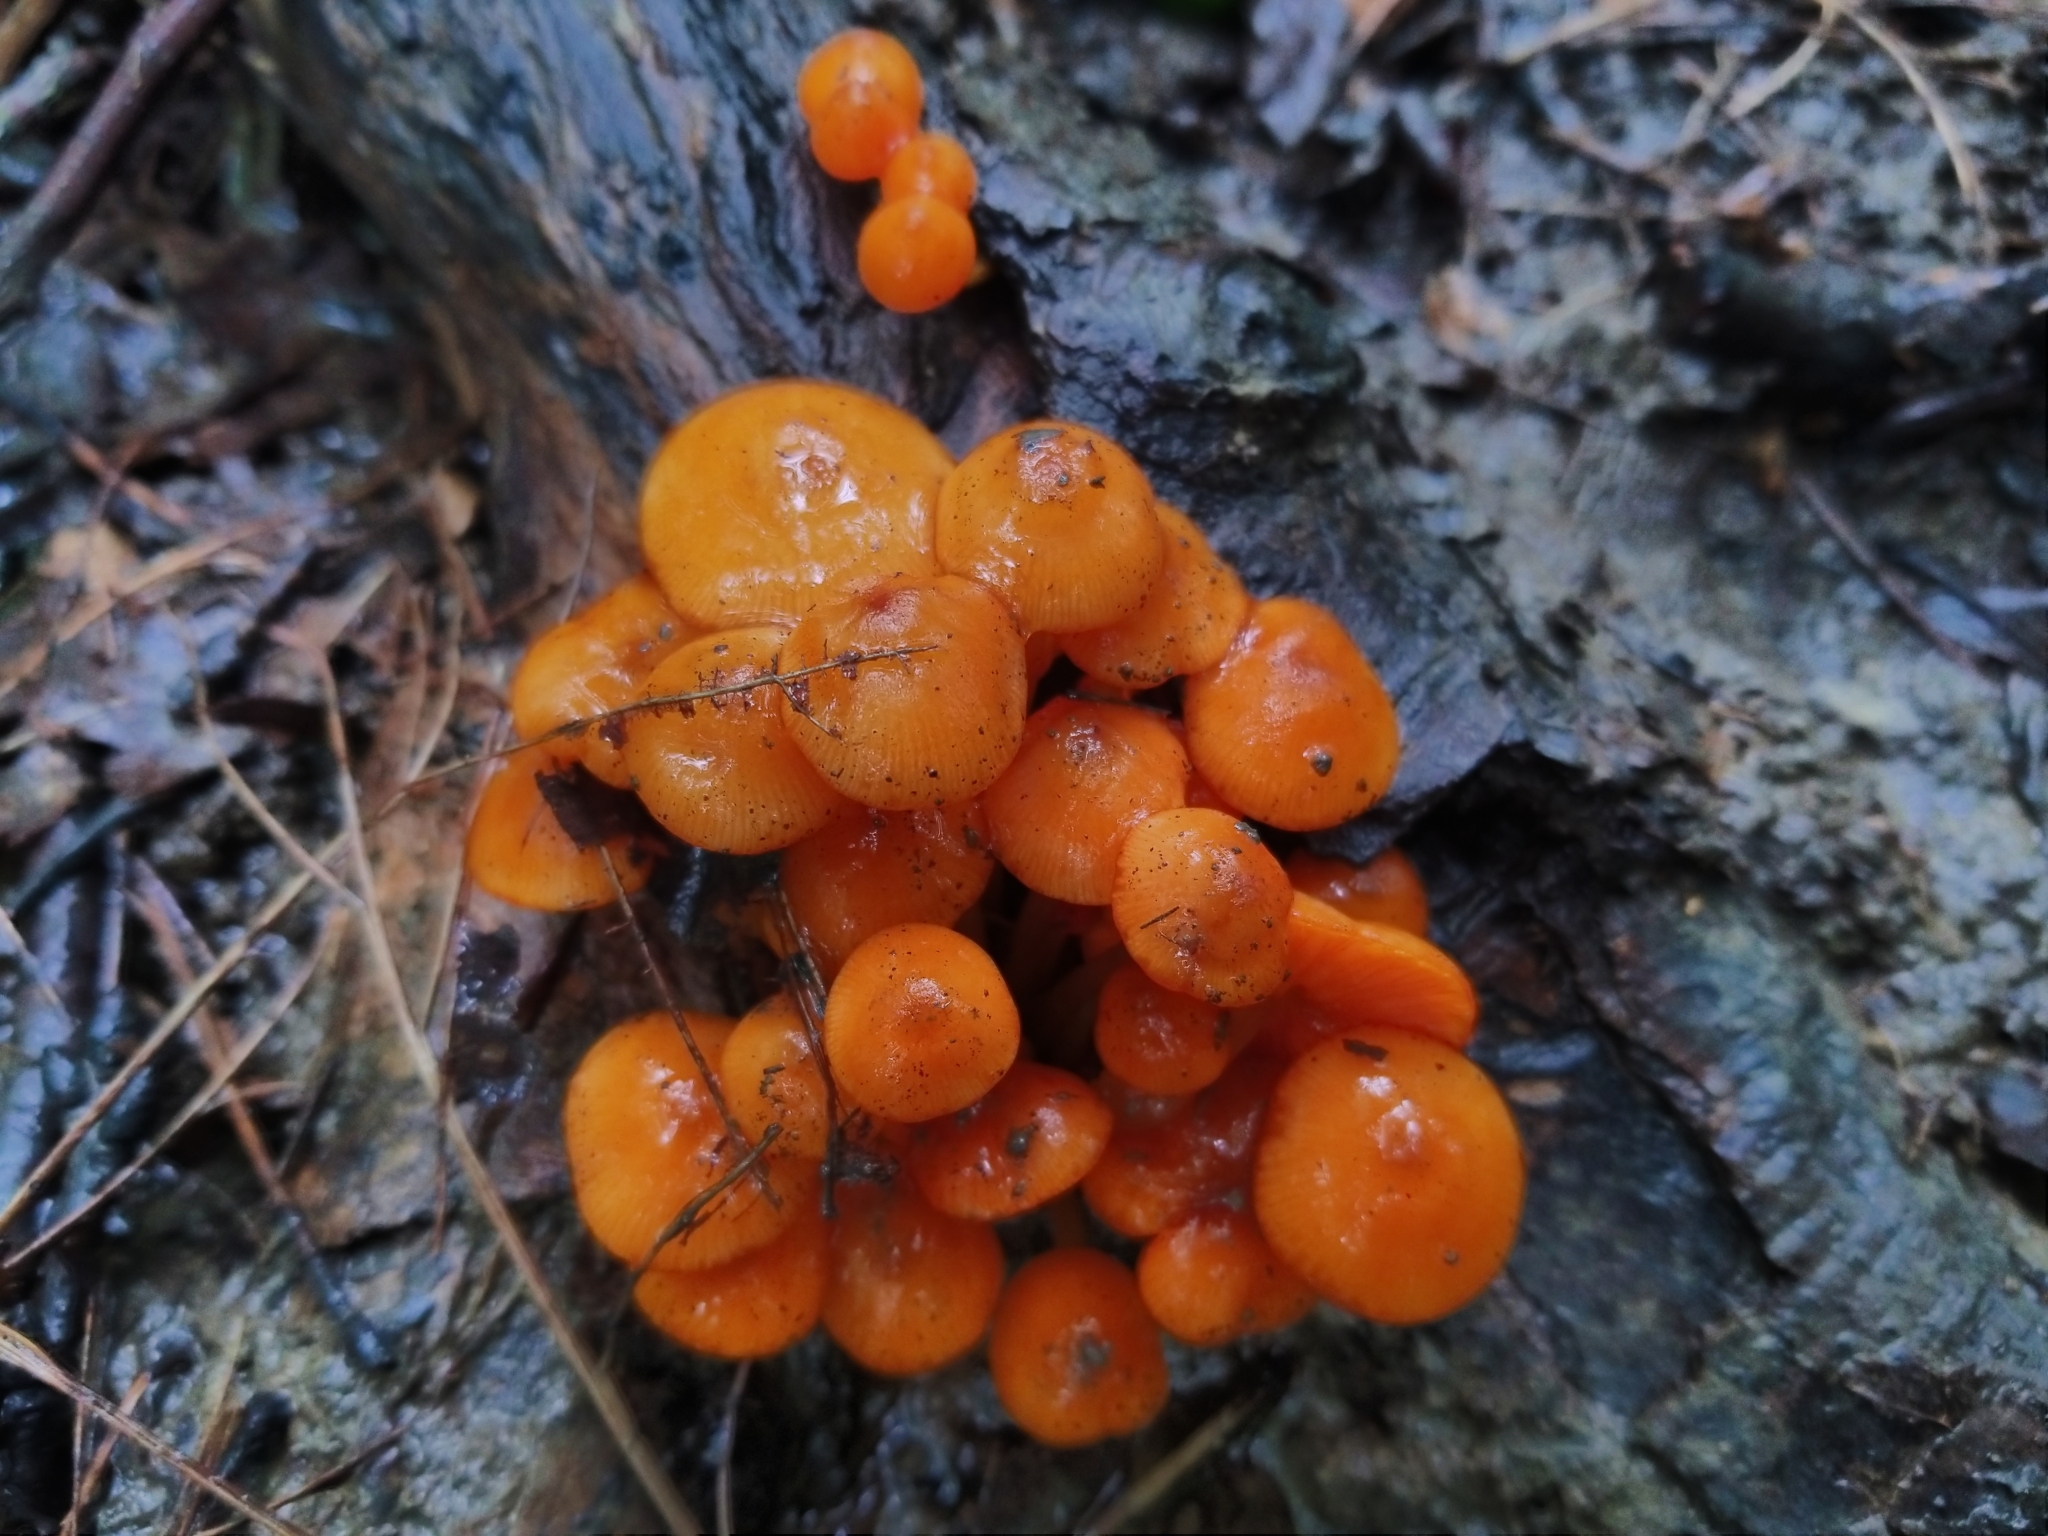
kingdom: Fungi
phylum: Basidiomycota
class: Agaricomycetes
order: Agaricales
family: Mycenaceae
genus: Mycena
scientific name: Mycena leaiana
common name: Orange mycena
